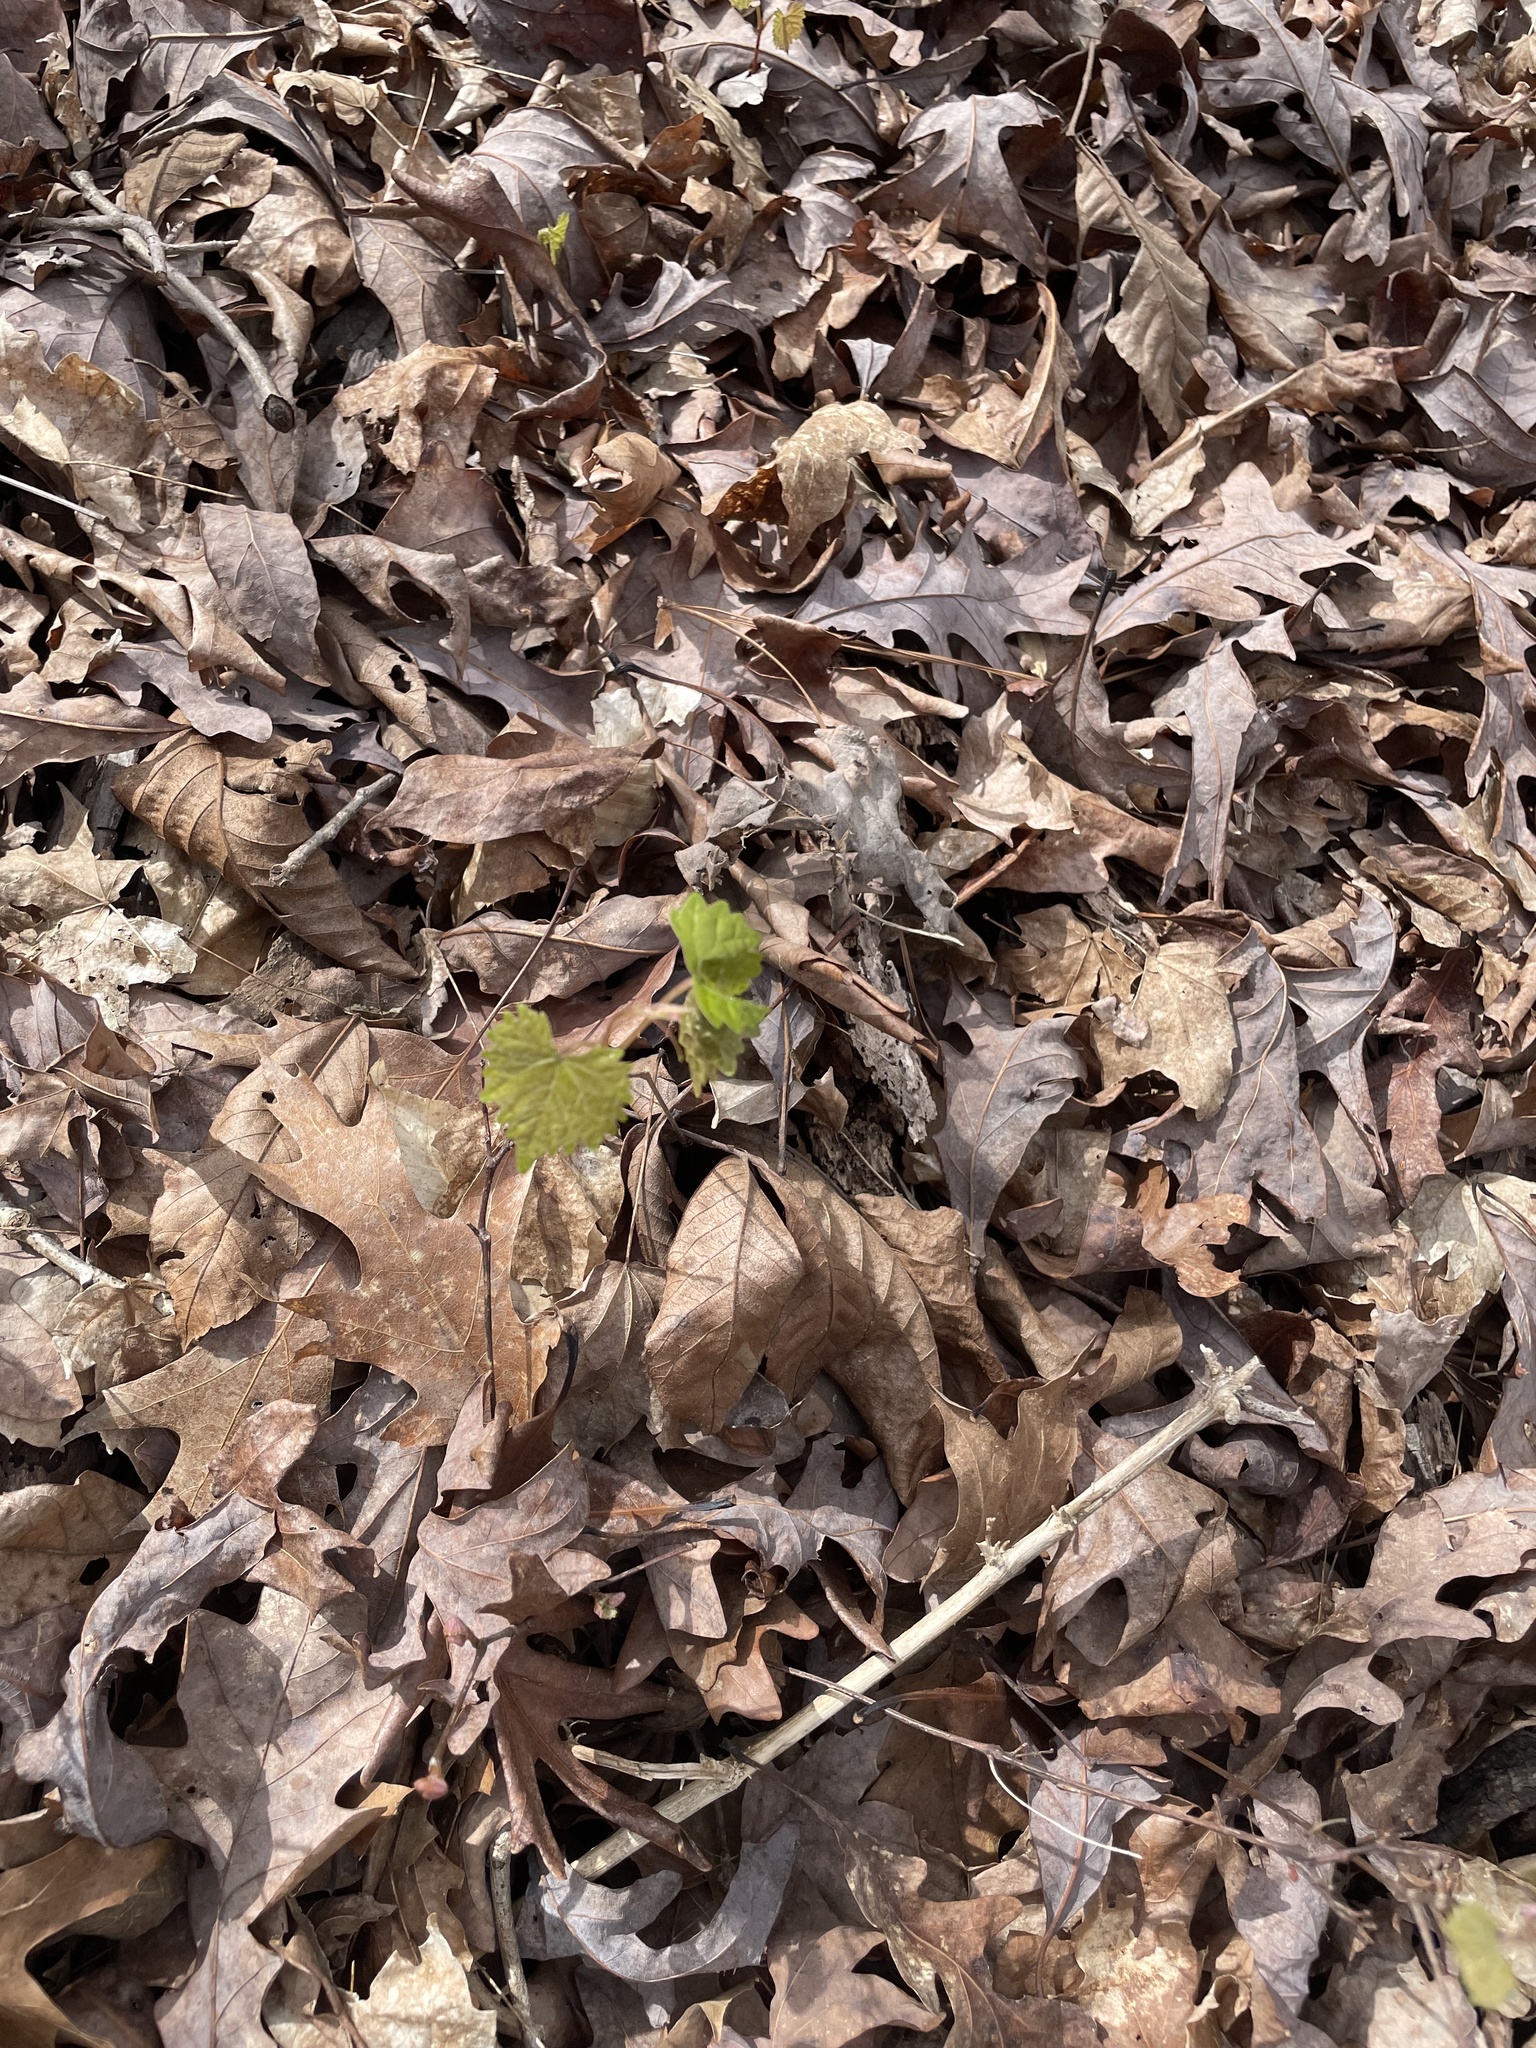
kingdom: Plantae
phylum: Tracheophyta
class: Magnoliopsida
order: Vitales
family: Vitaceae
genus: Vitis
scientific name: Vitis rotundifolia
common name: Muscadine grape
